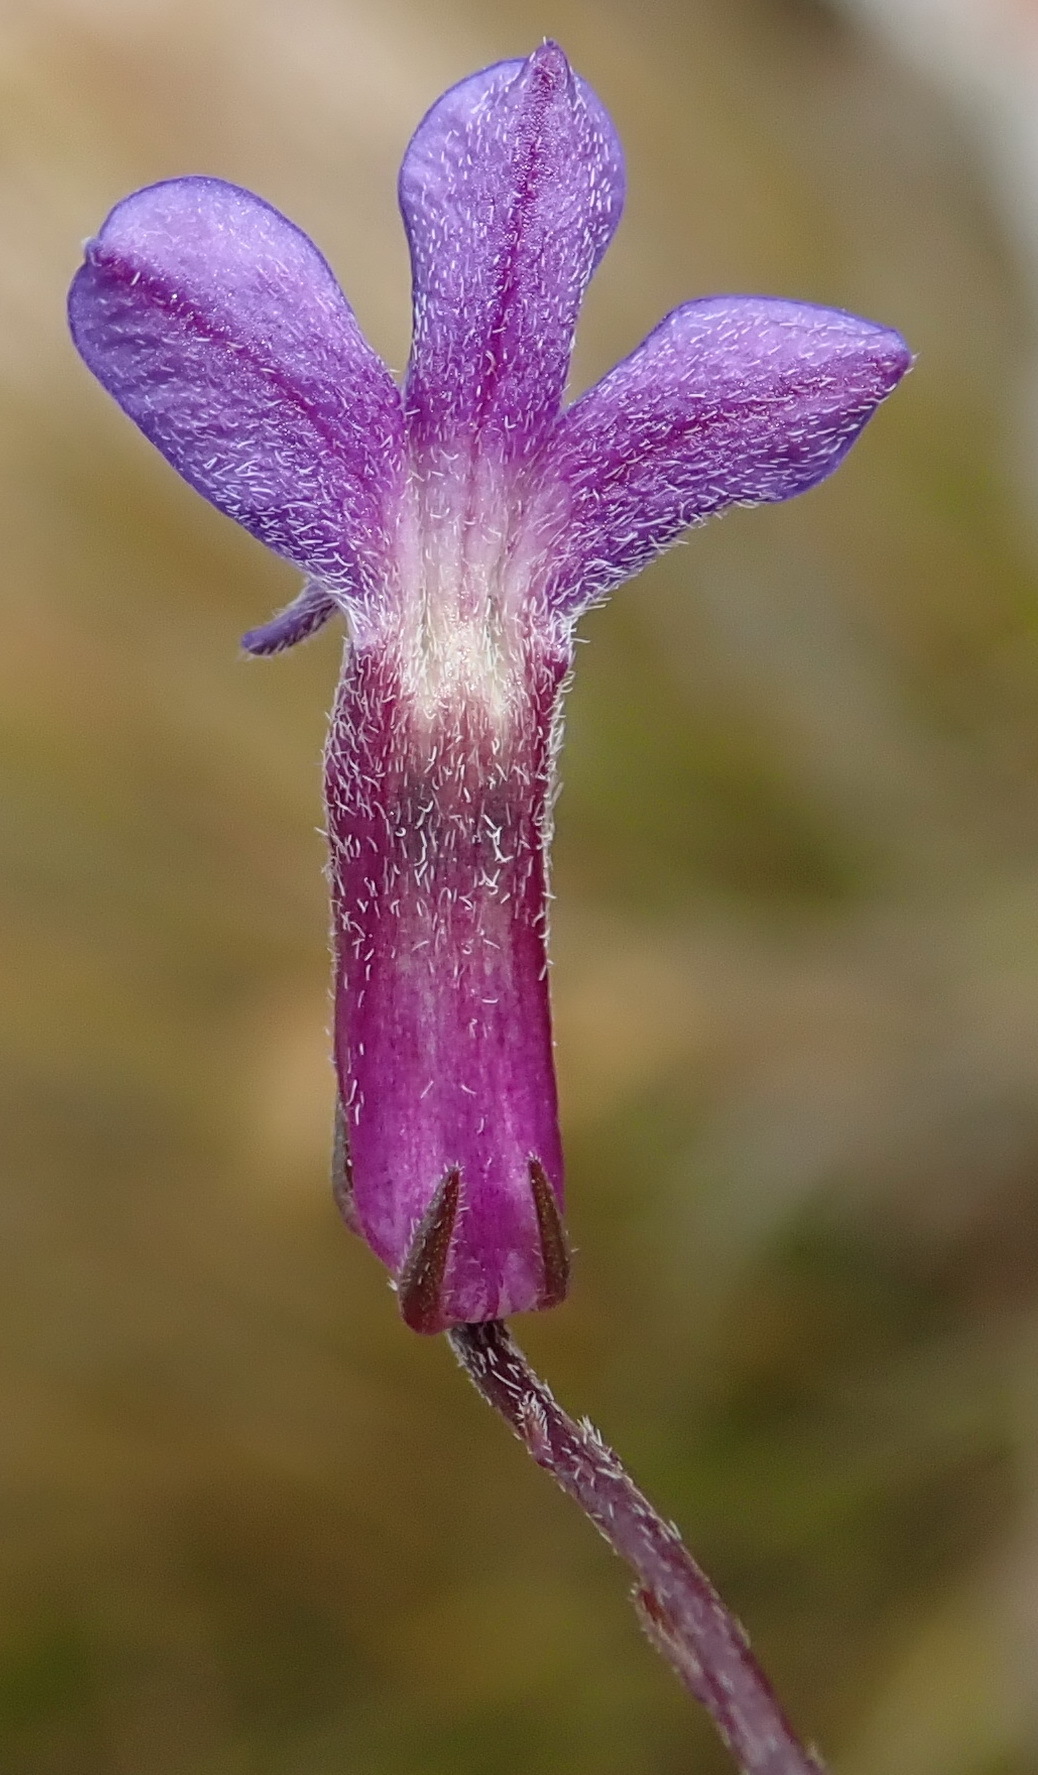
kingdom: Plantae
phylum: Tracheophyta
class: Magnoliopsida
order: Asterales
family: Campanulaceae
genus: Lobelia
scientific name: Lobelia tomentosa
